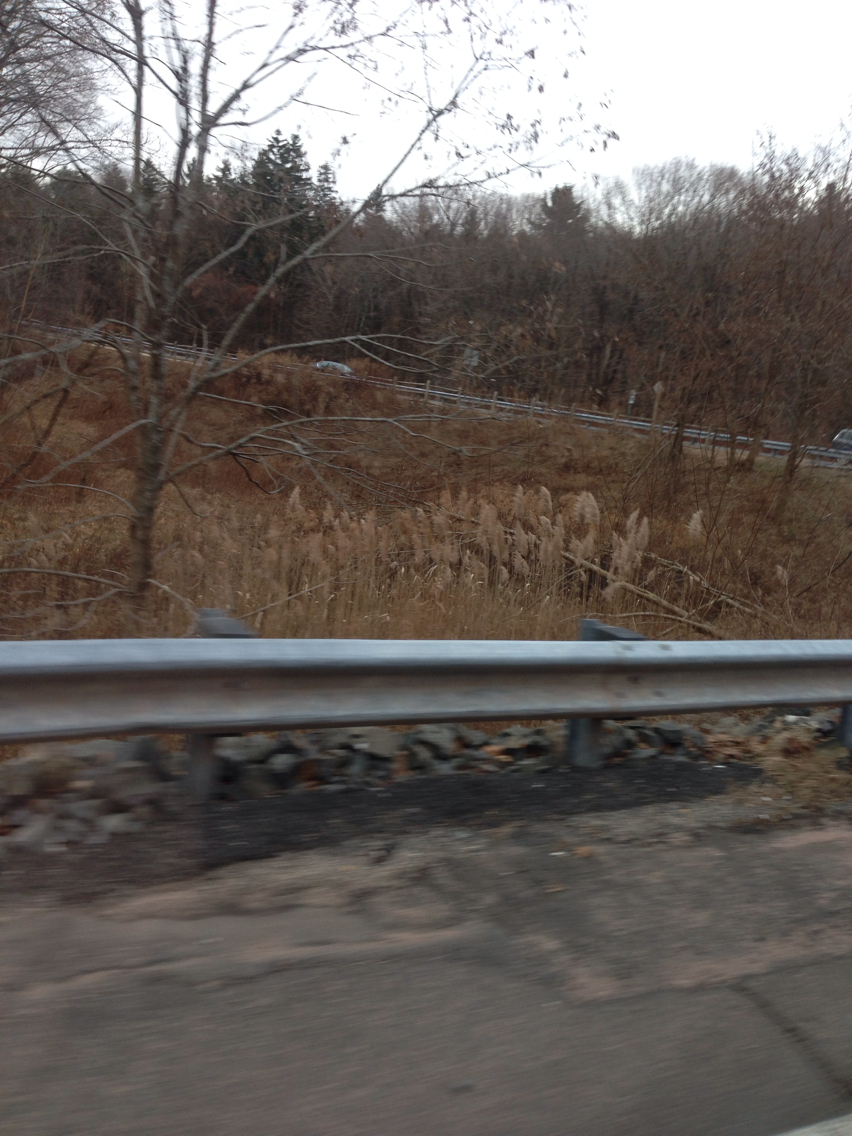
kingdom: Plantae
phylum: Tracheophyta
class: Liliopsida
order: Poales
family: Poaceae
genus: Phragmites
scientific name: Phragmites australis
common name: Common reed
